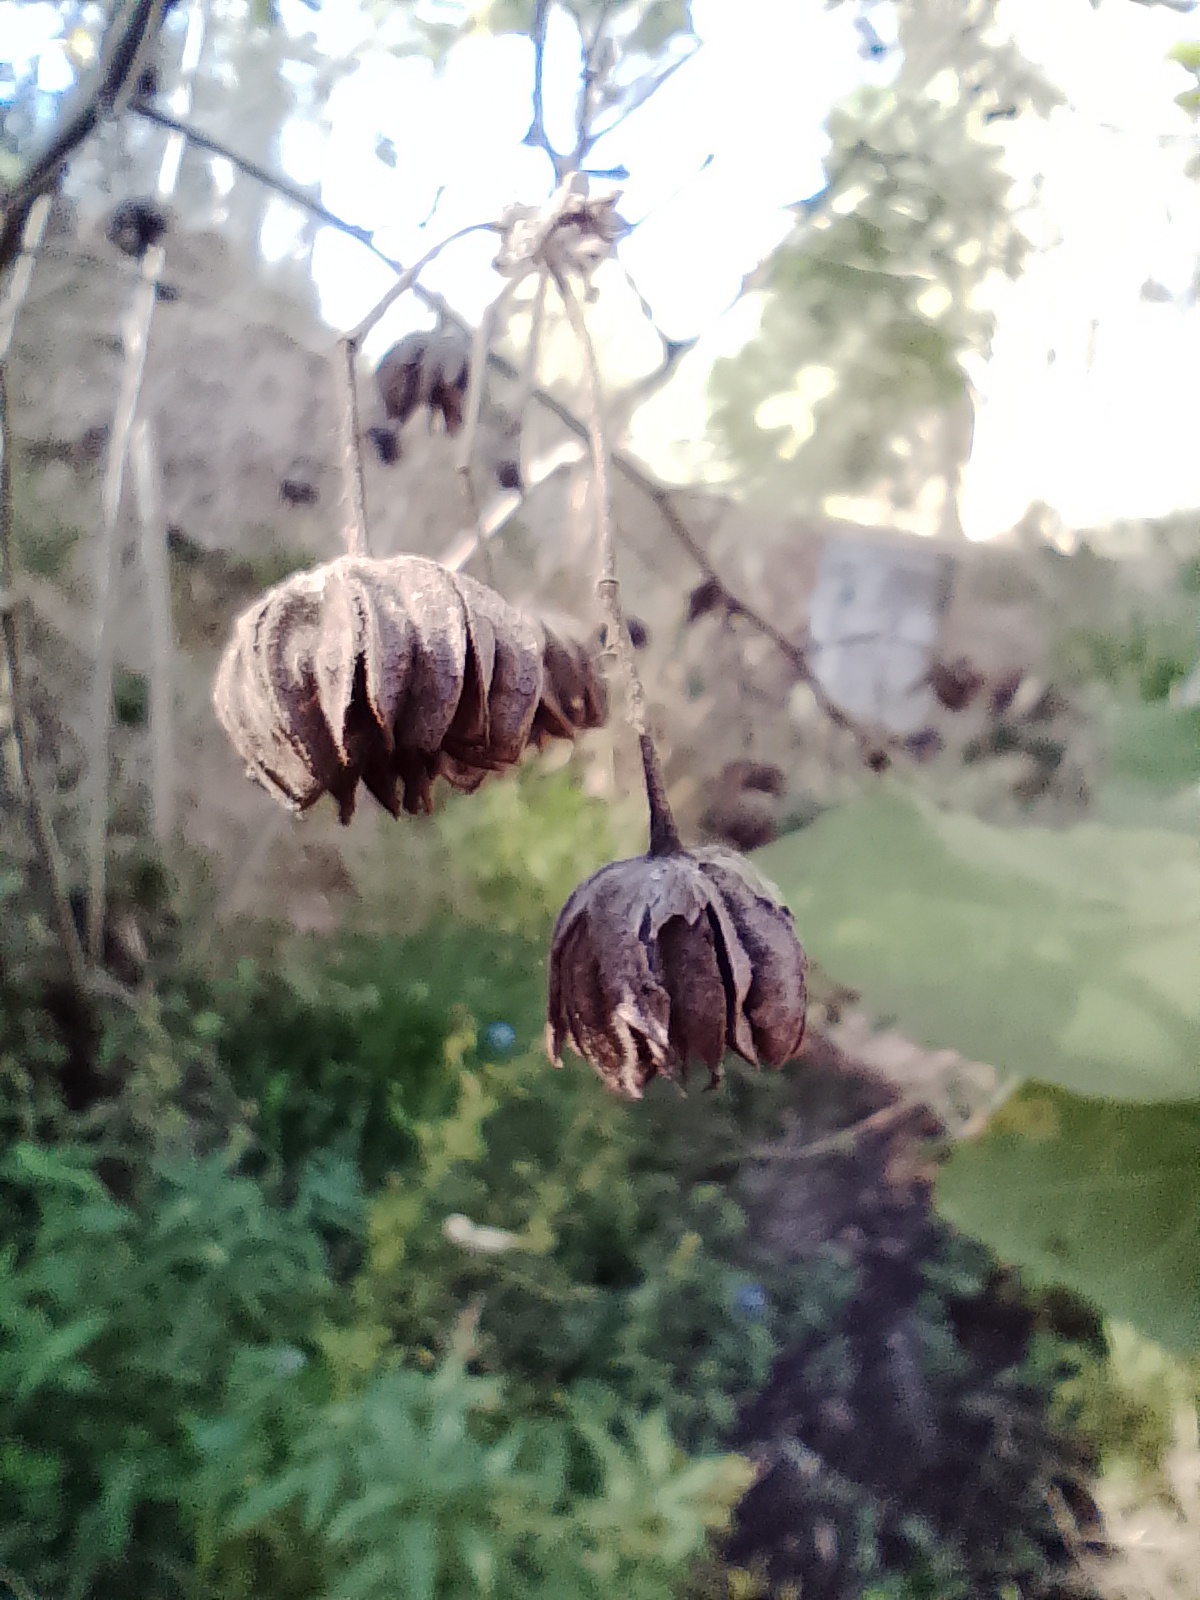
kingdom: Plantae
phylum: Tracheophyta
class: Magnoliopsida
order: Malvales
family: Malvaceae
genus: Abutilon
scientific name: Abutilon grandifolium
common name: Hairy abutilon
